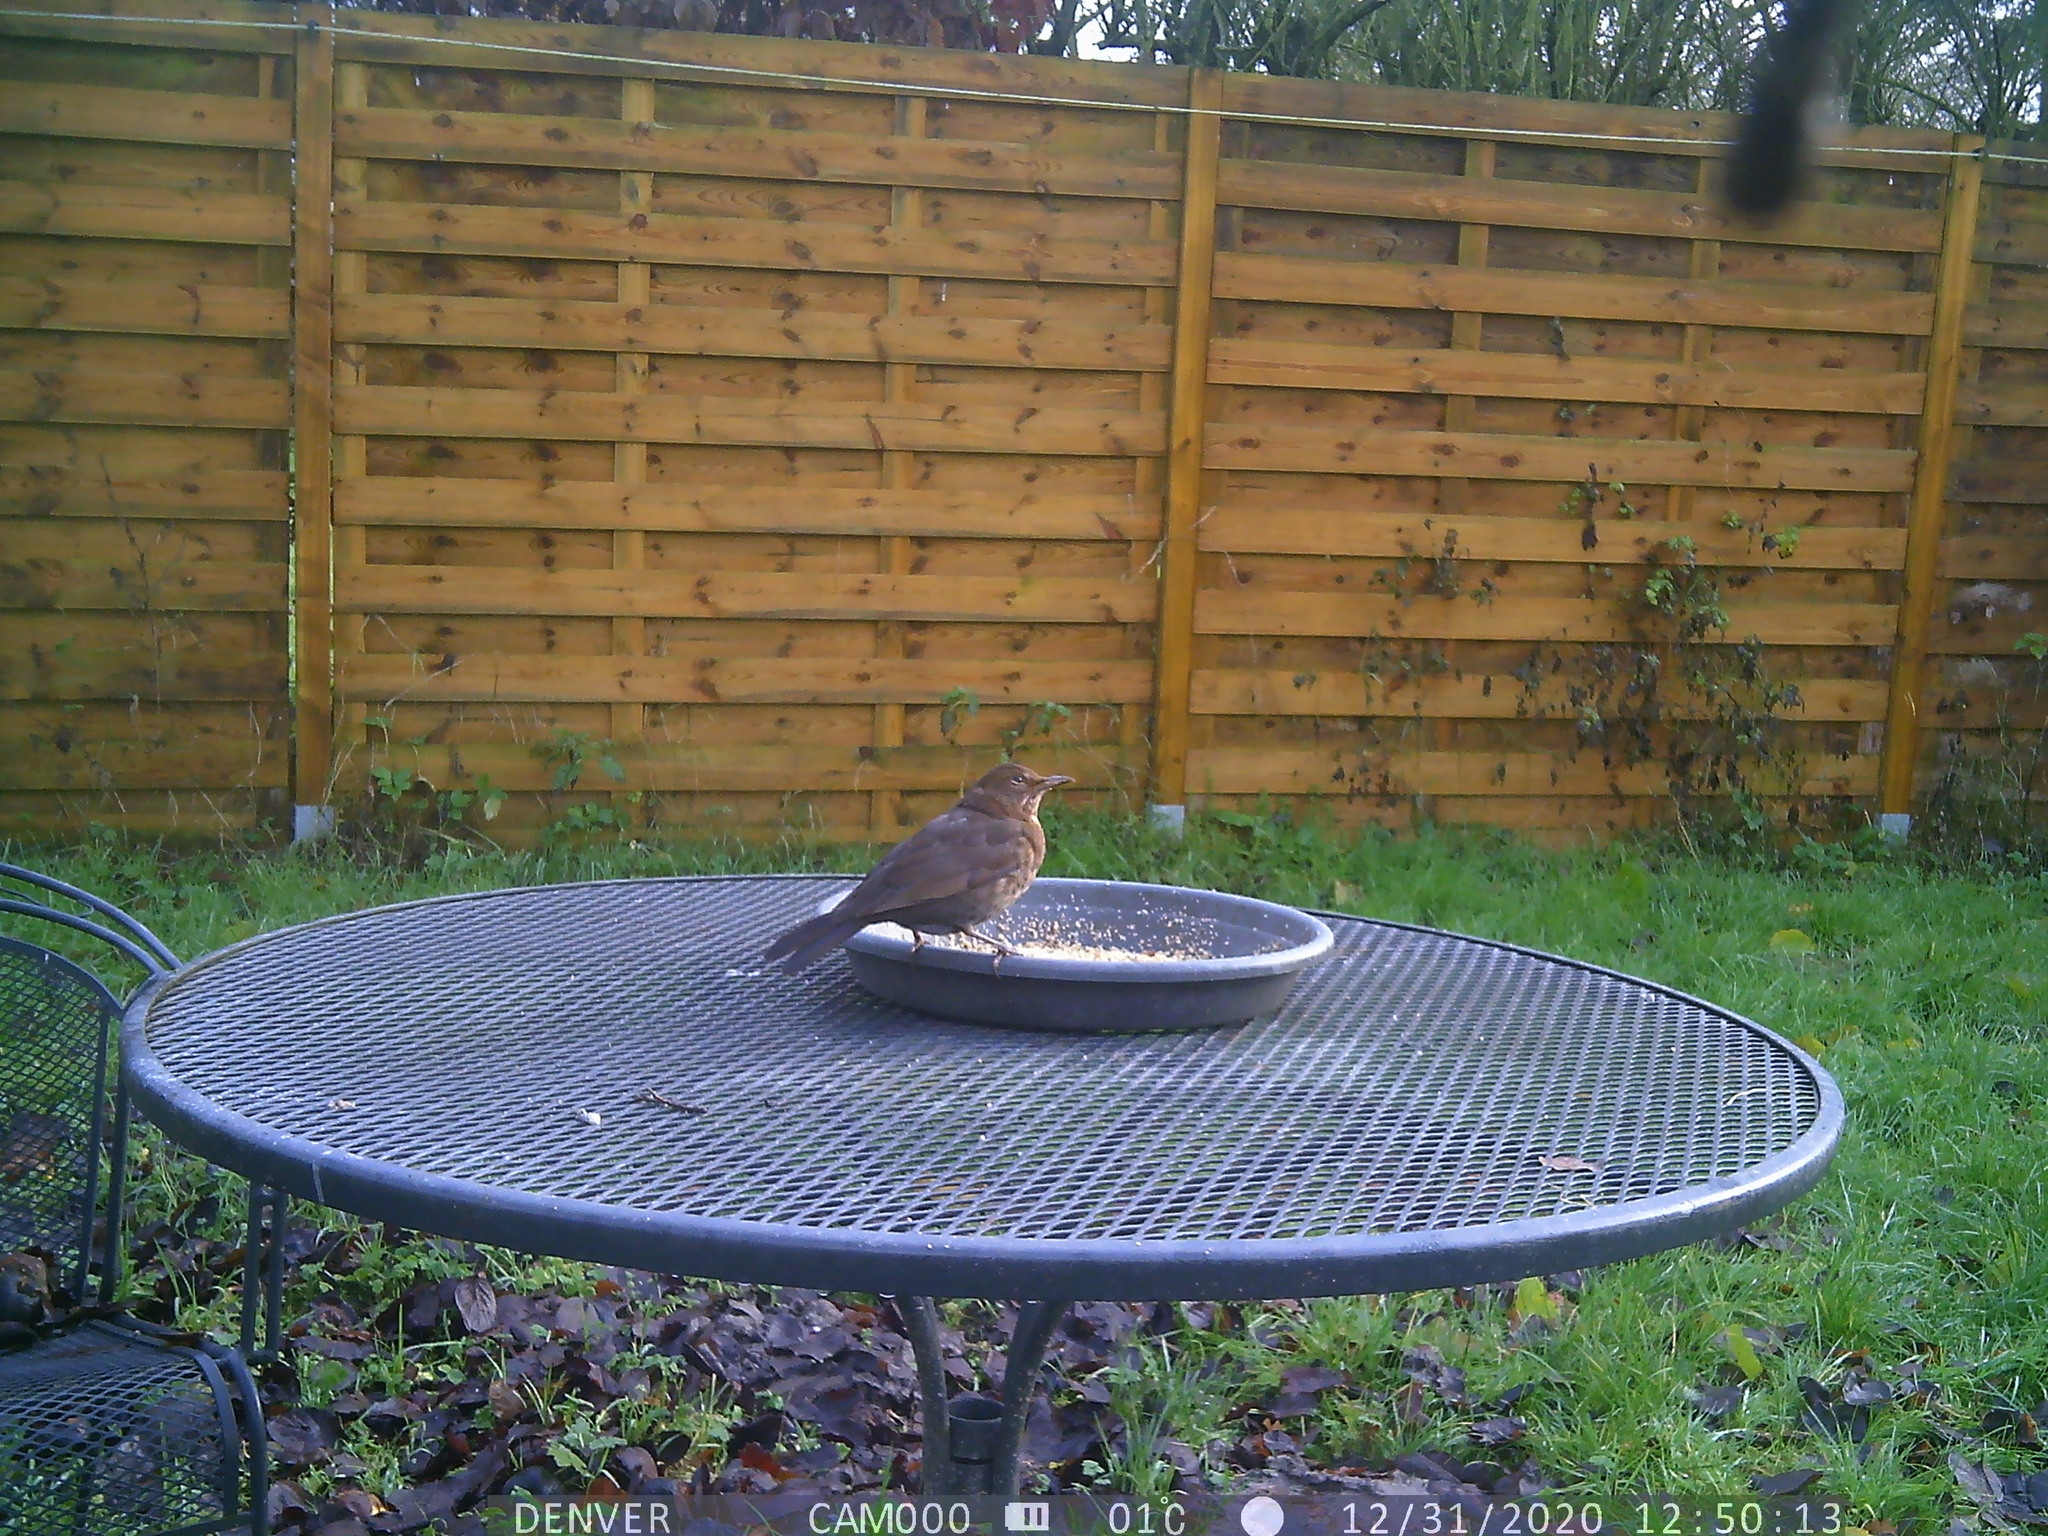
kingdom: Animalia
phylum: Chordata
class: Aves
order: Passeriformes
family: Turdidae
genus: Turdus
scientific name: Turdus merula
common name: Common blackbird
